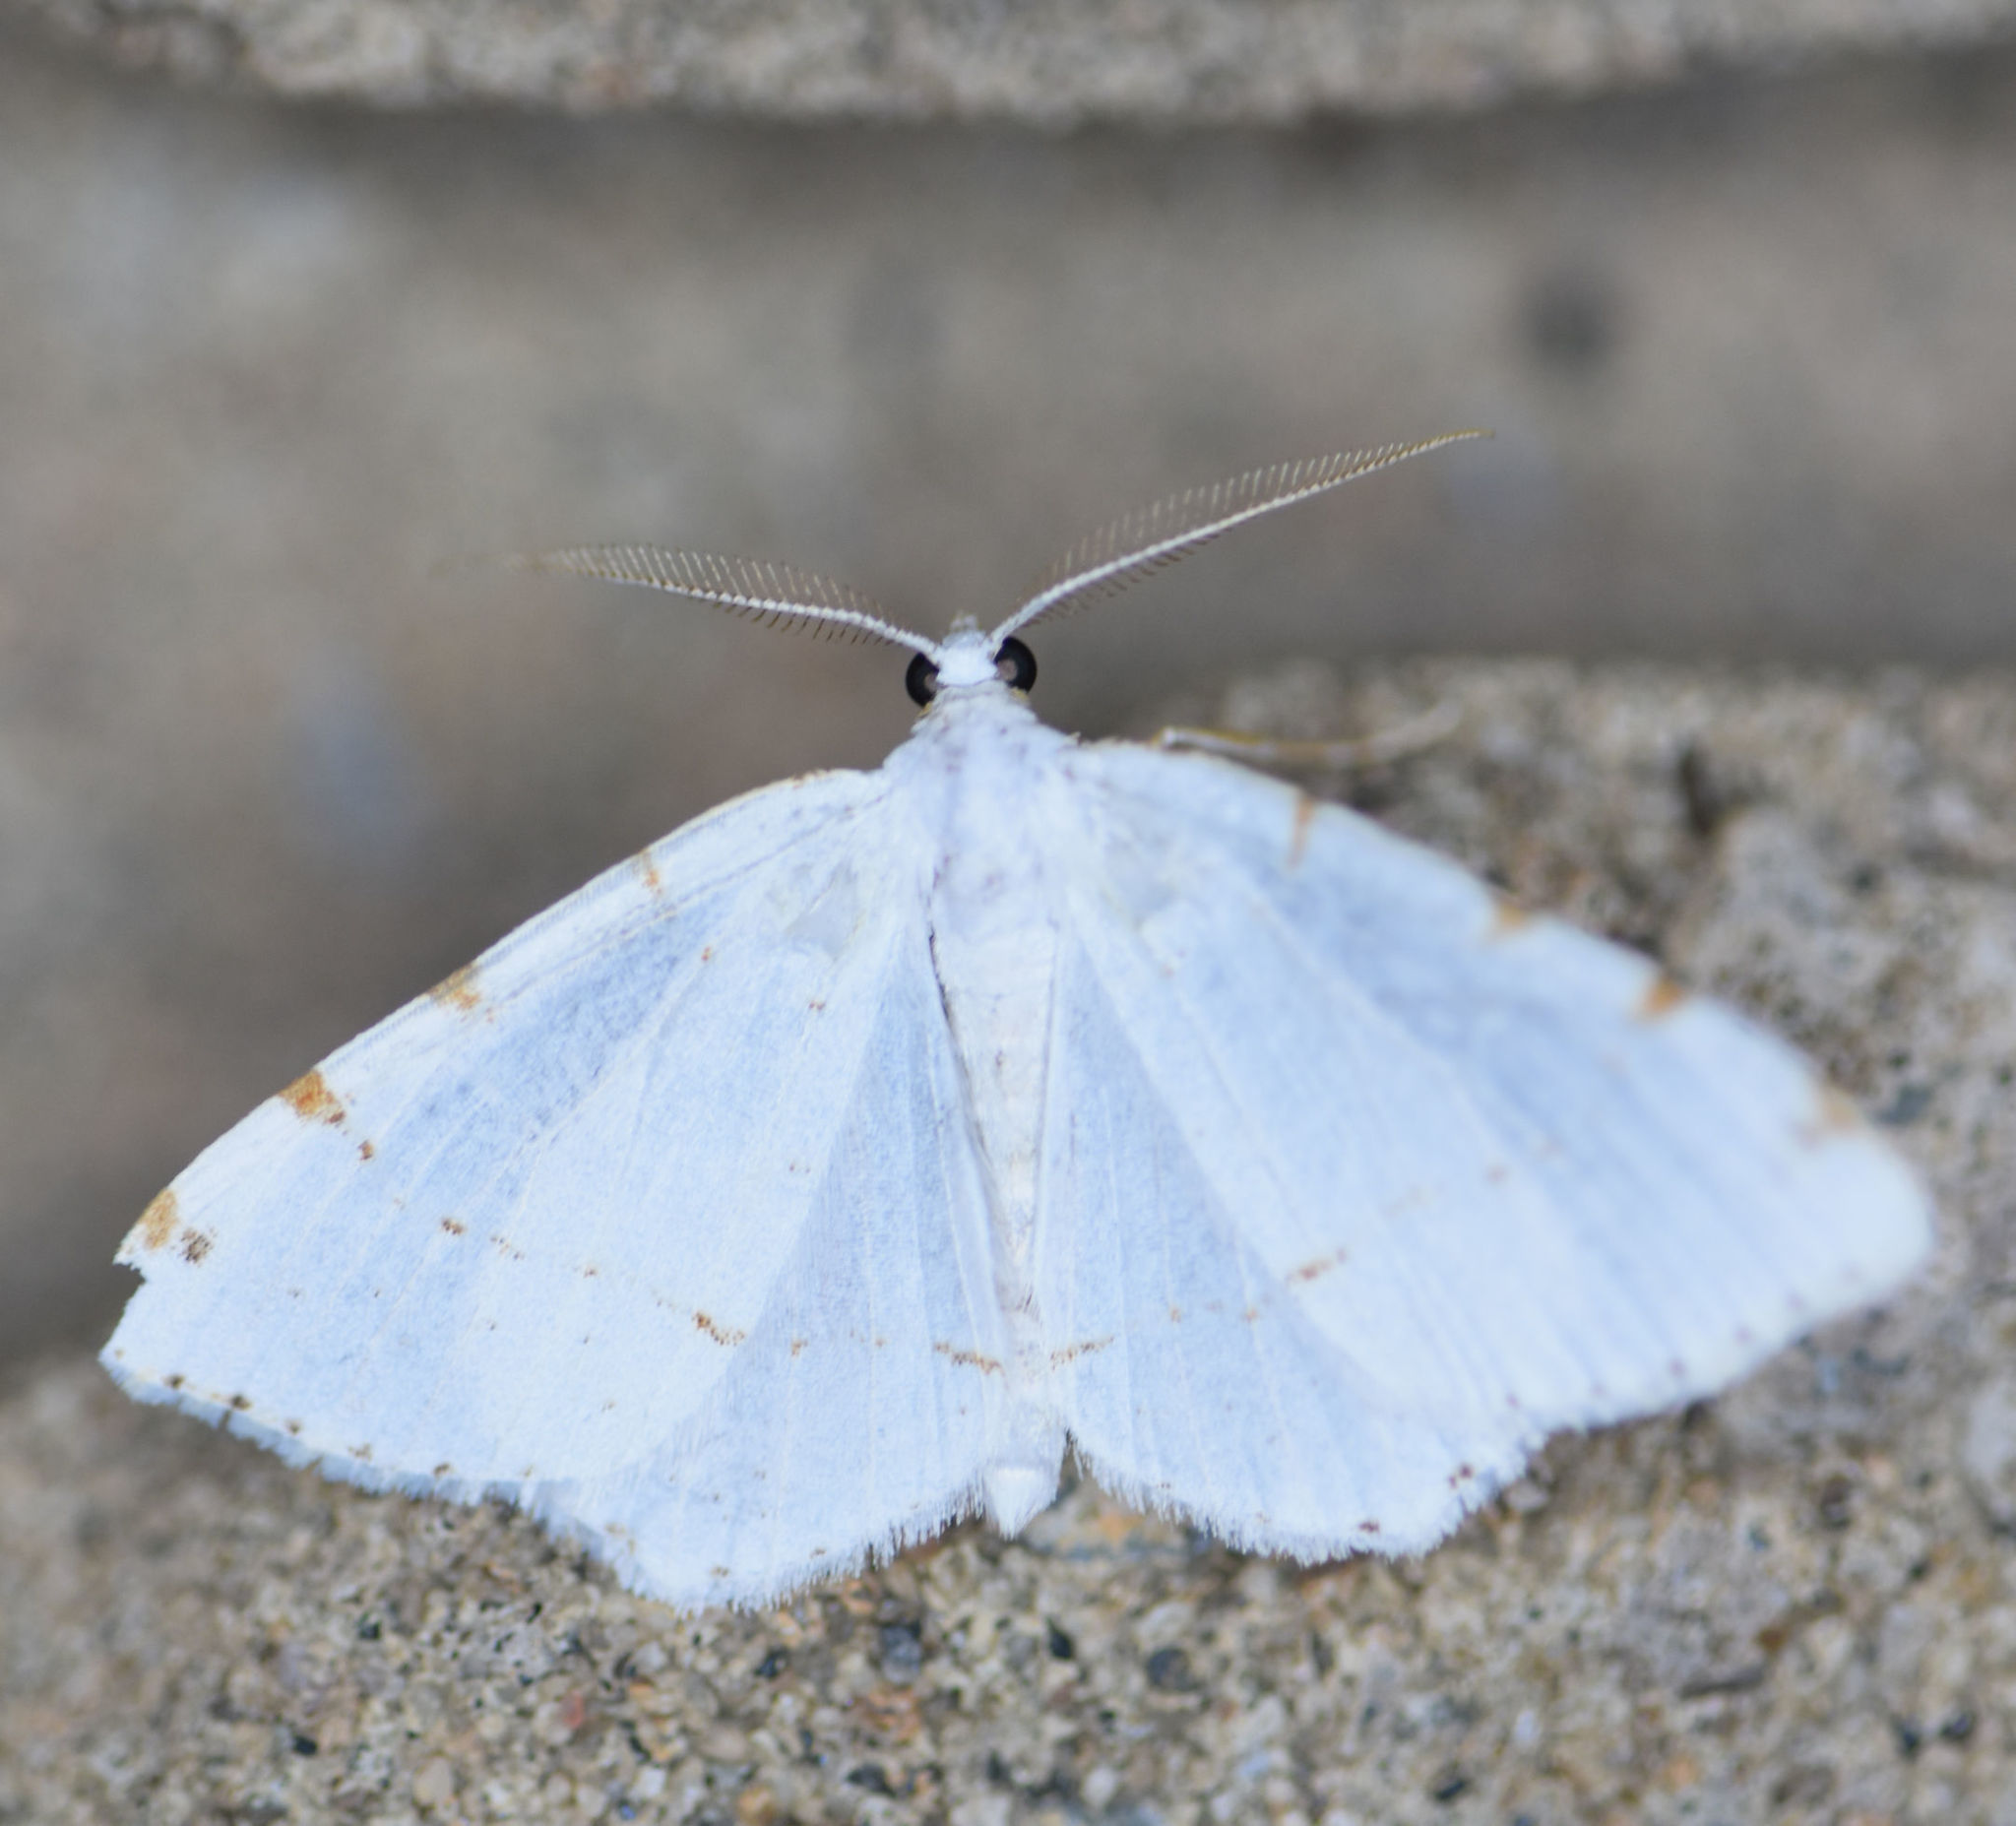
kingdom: Animalia
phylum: Arthropoda
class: Insecta
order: Lepidoptera
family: Geometridae
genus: Macaria
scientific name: Macaria pustularia
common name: Lesser maple spanworm moth
